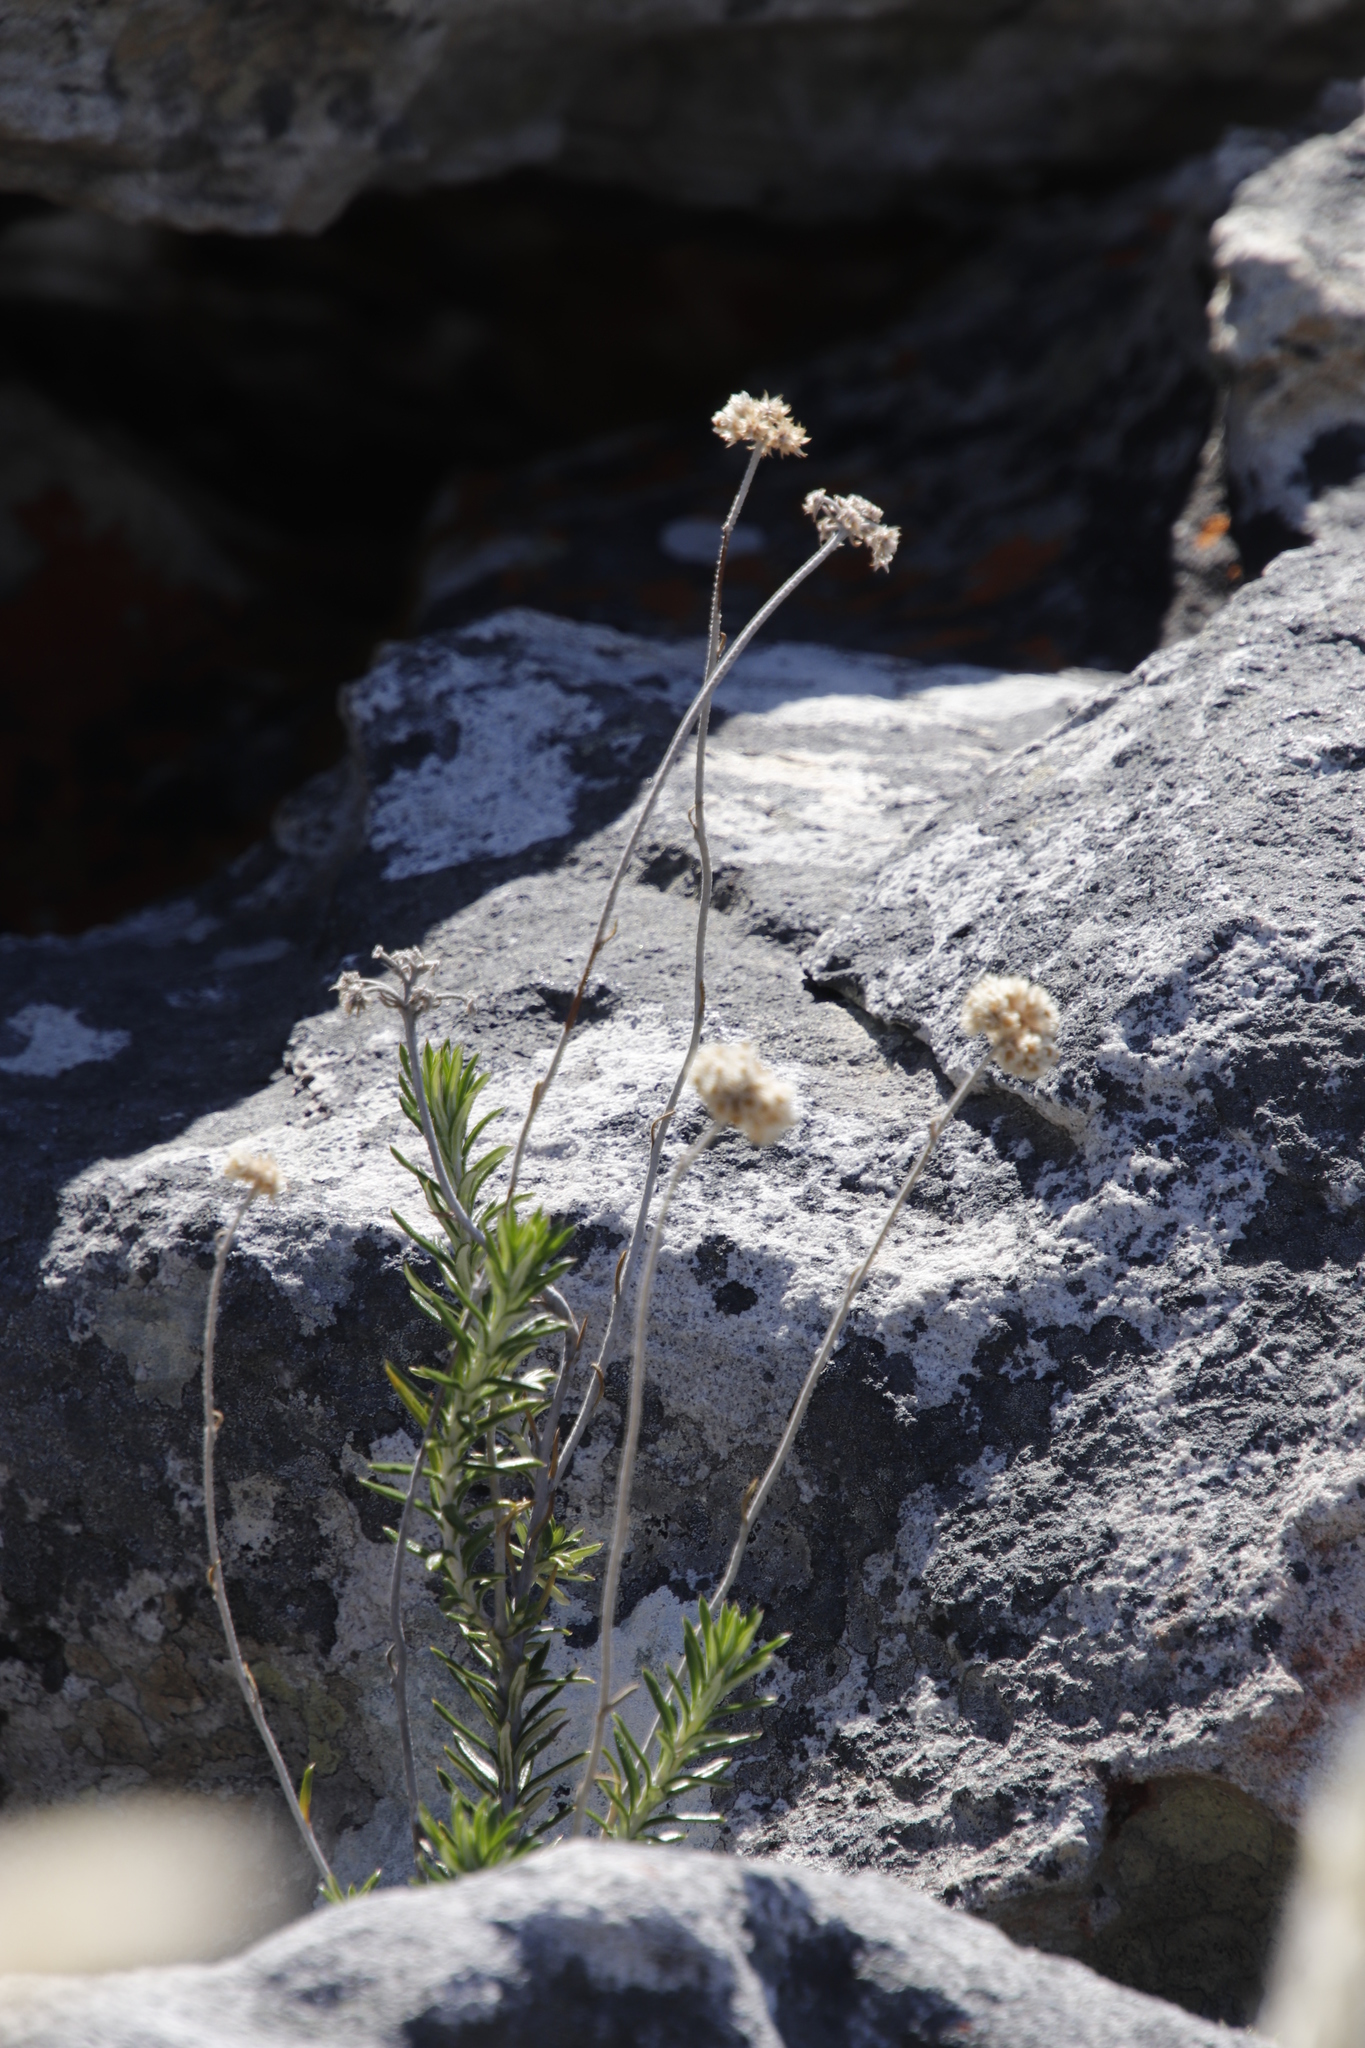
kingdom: Plantae
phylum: Tracheophyta
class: Magnoliopsida
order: Asterales
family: Asteraceae
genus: Anaxeton
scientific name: Anaxeton laeve
